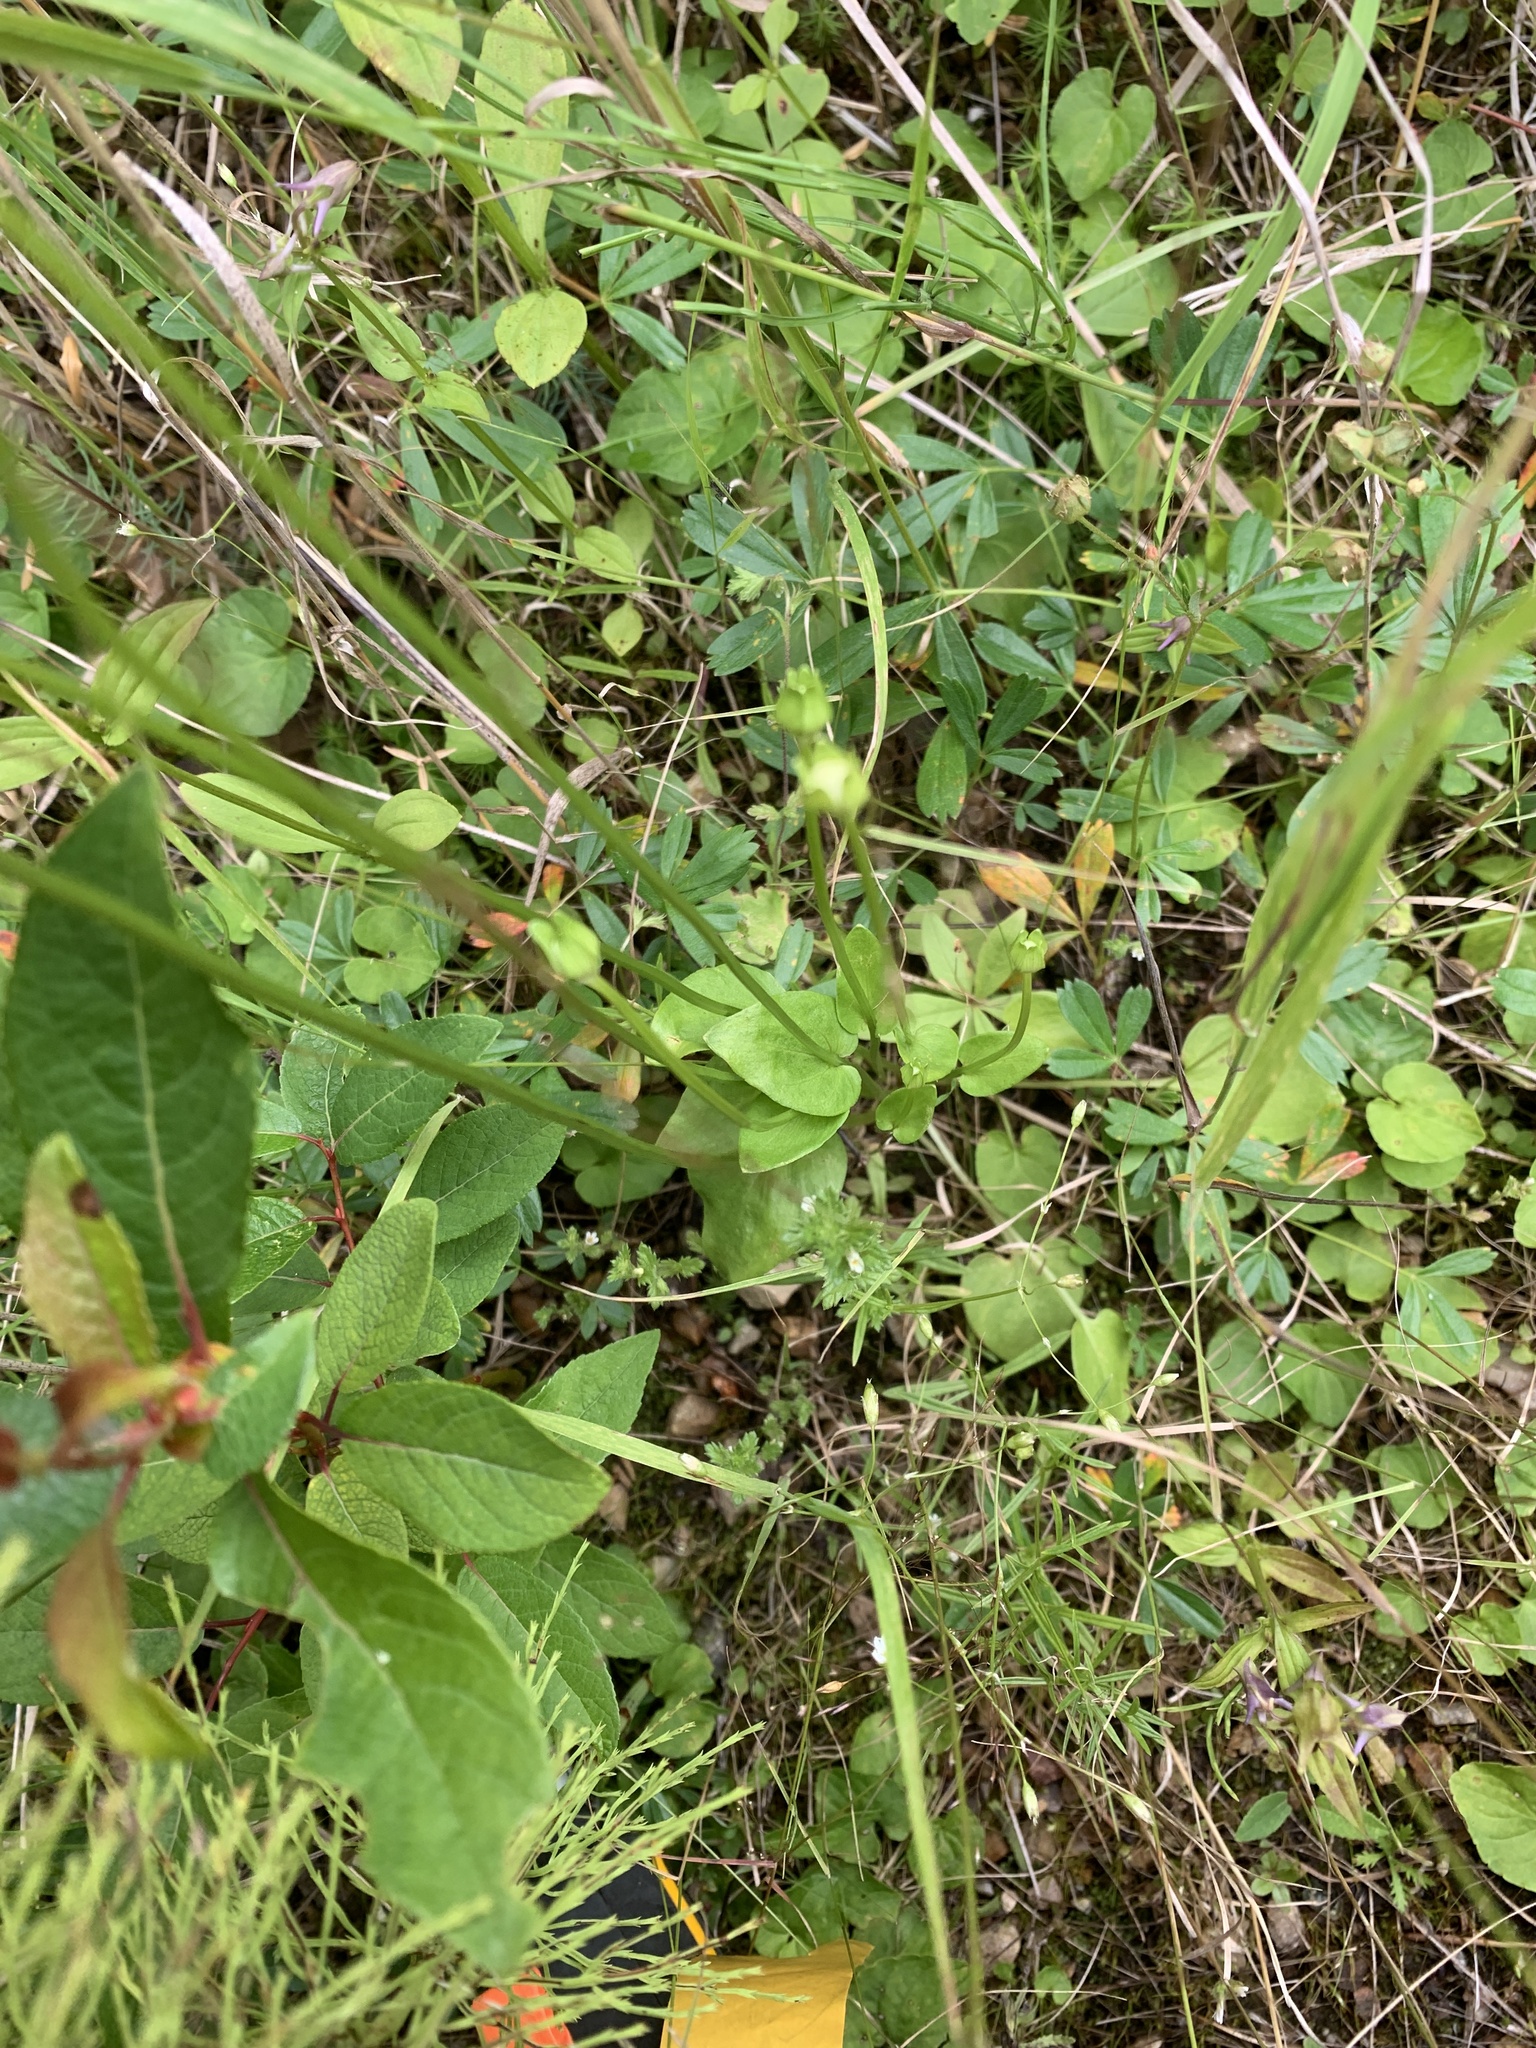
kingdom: Plantae
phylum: Tracheophyta
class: Magnoliopsida
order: Celastrales
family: Parnassiaceae
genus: Parnassia
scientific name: Parnassia palustris
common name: Grass-of-parnassus
